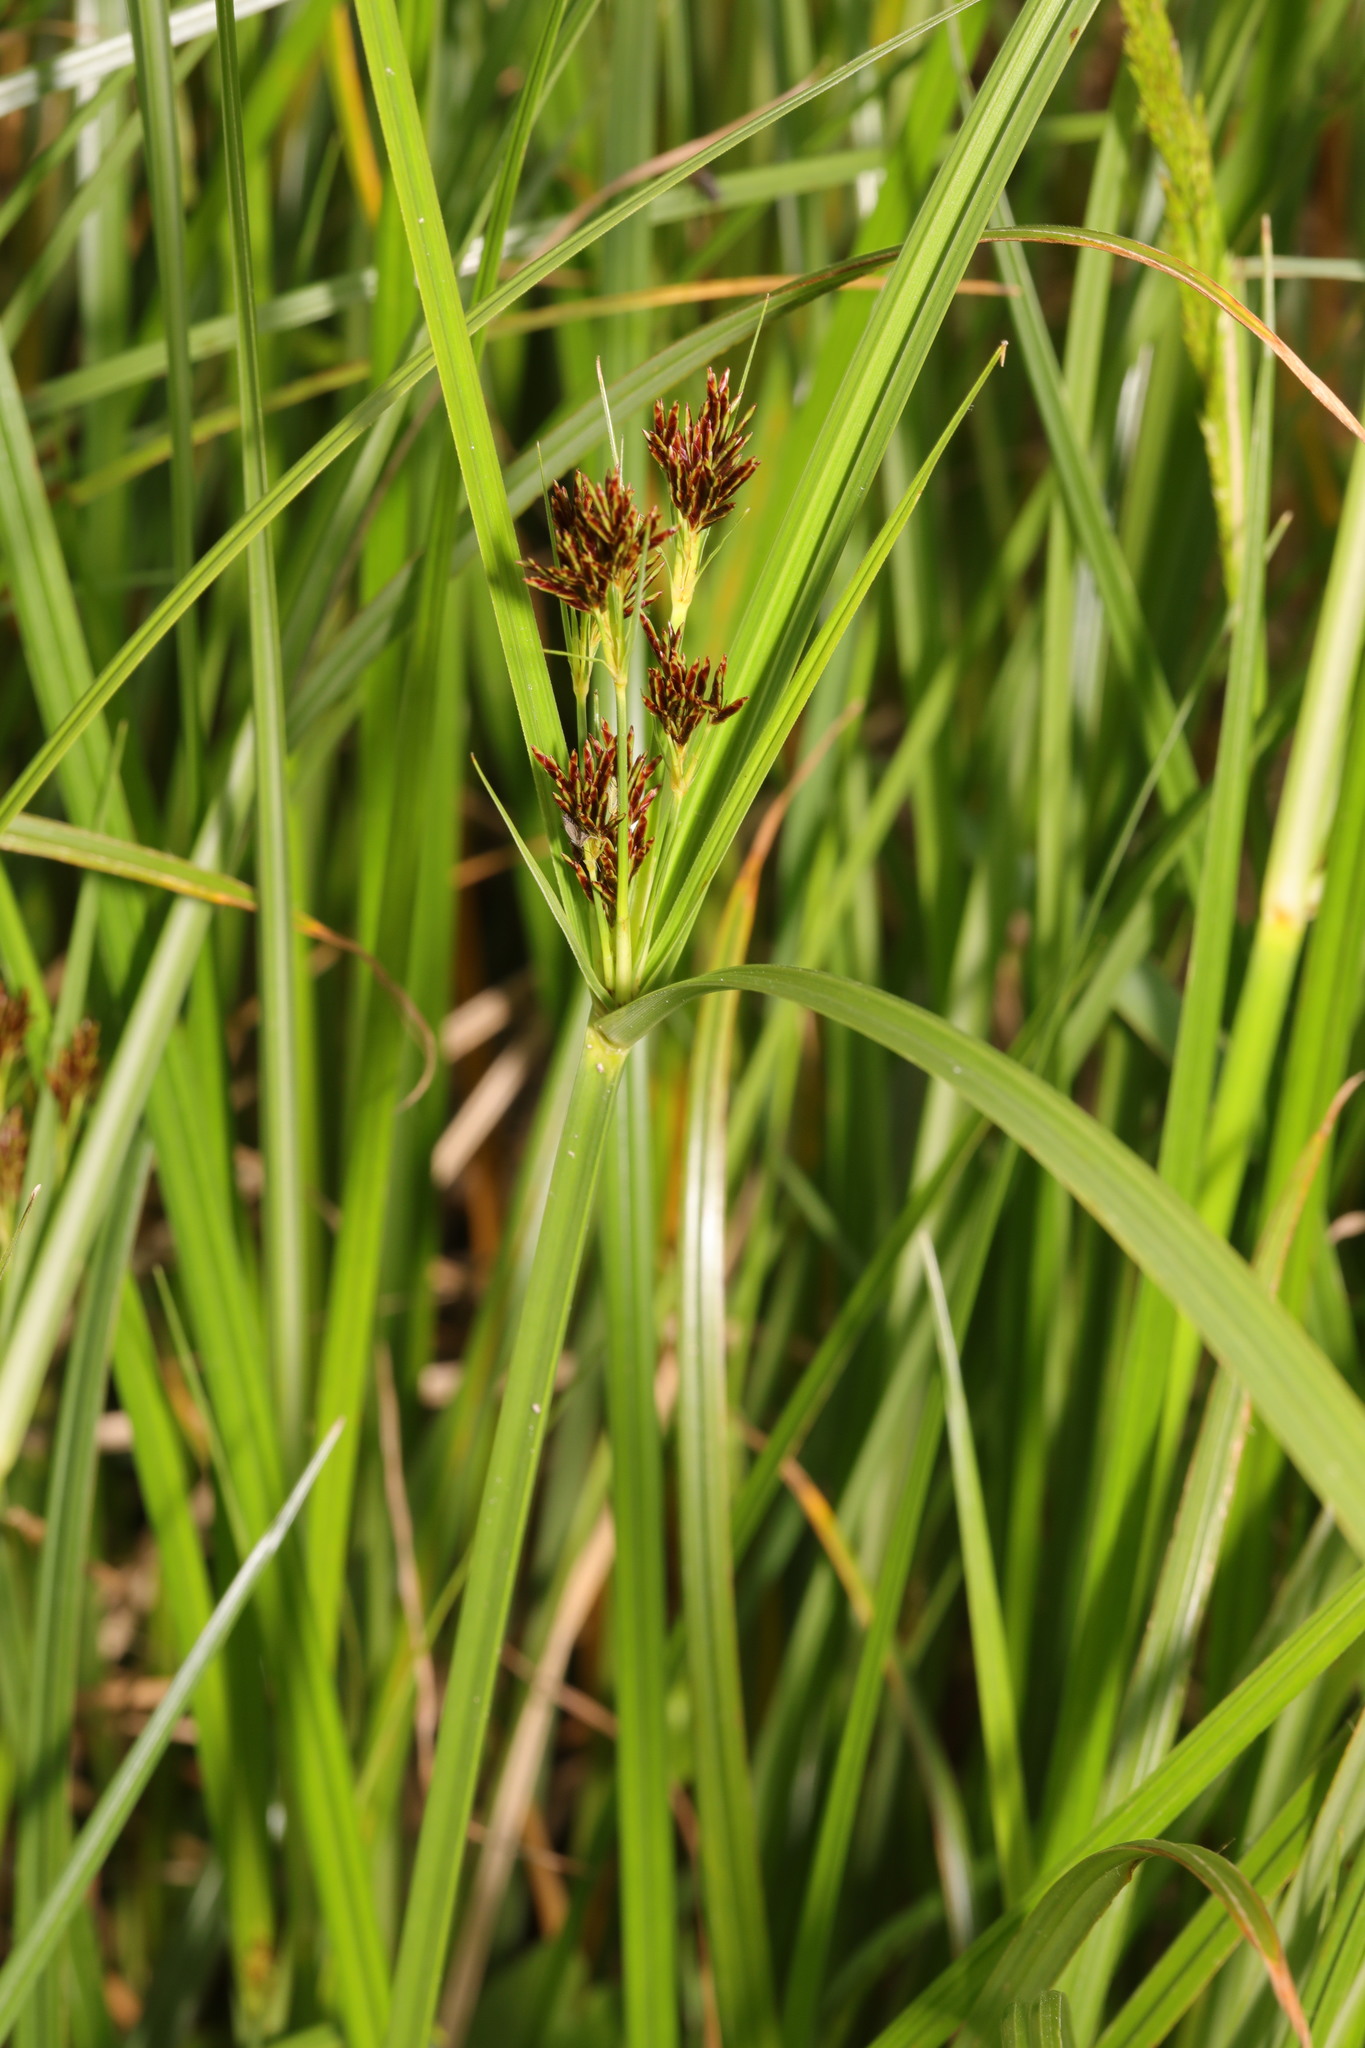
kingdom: Plantae
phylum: Tracheophyta
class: Liliopsida
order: Poales
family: Cyperaceae
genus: Cyperus
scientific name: Cyperus longus
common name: Galingale
